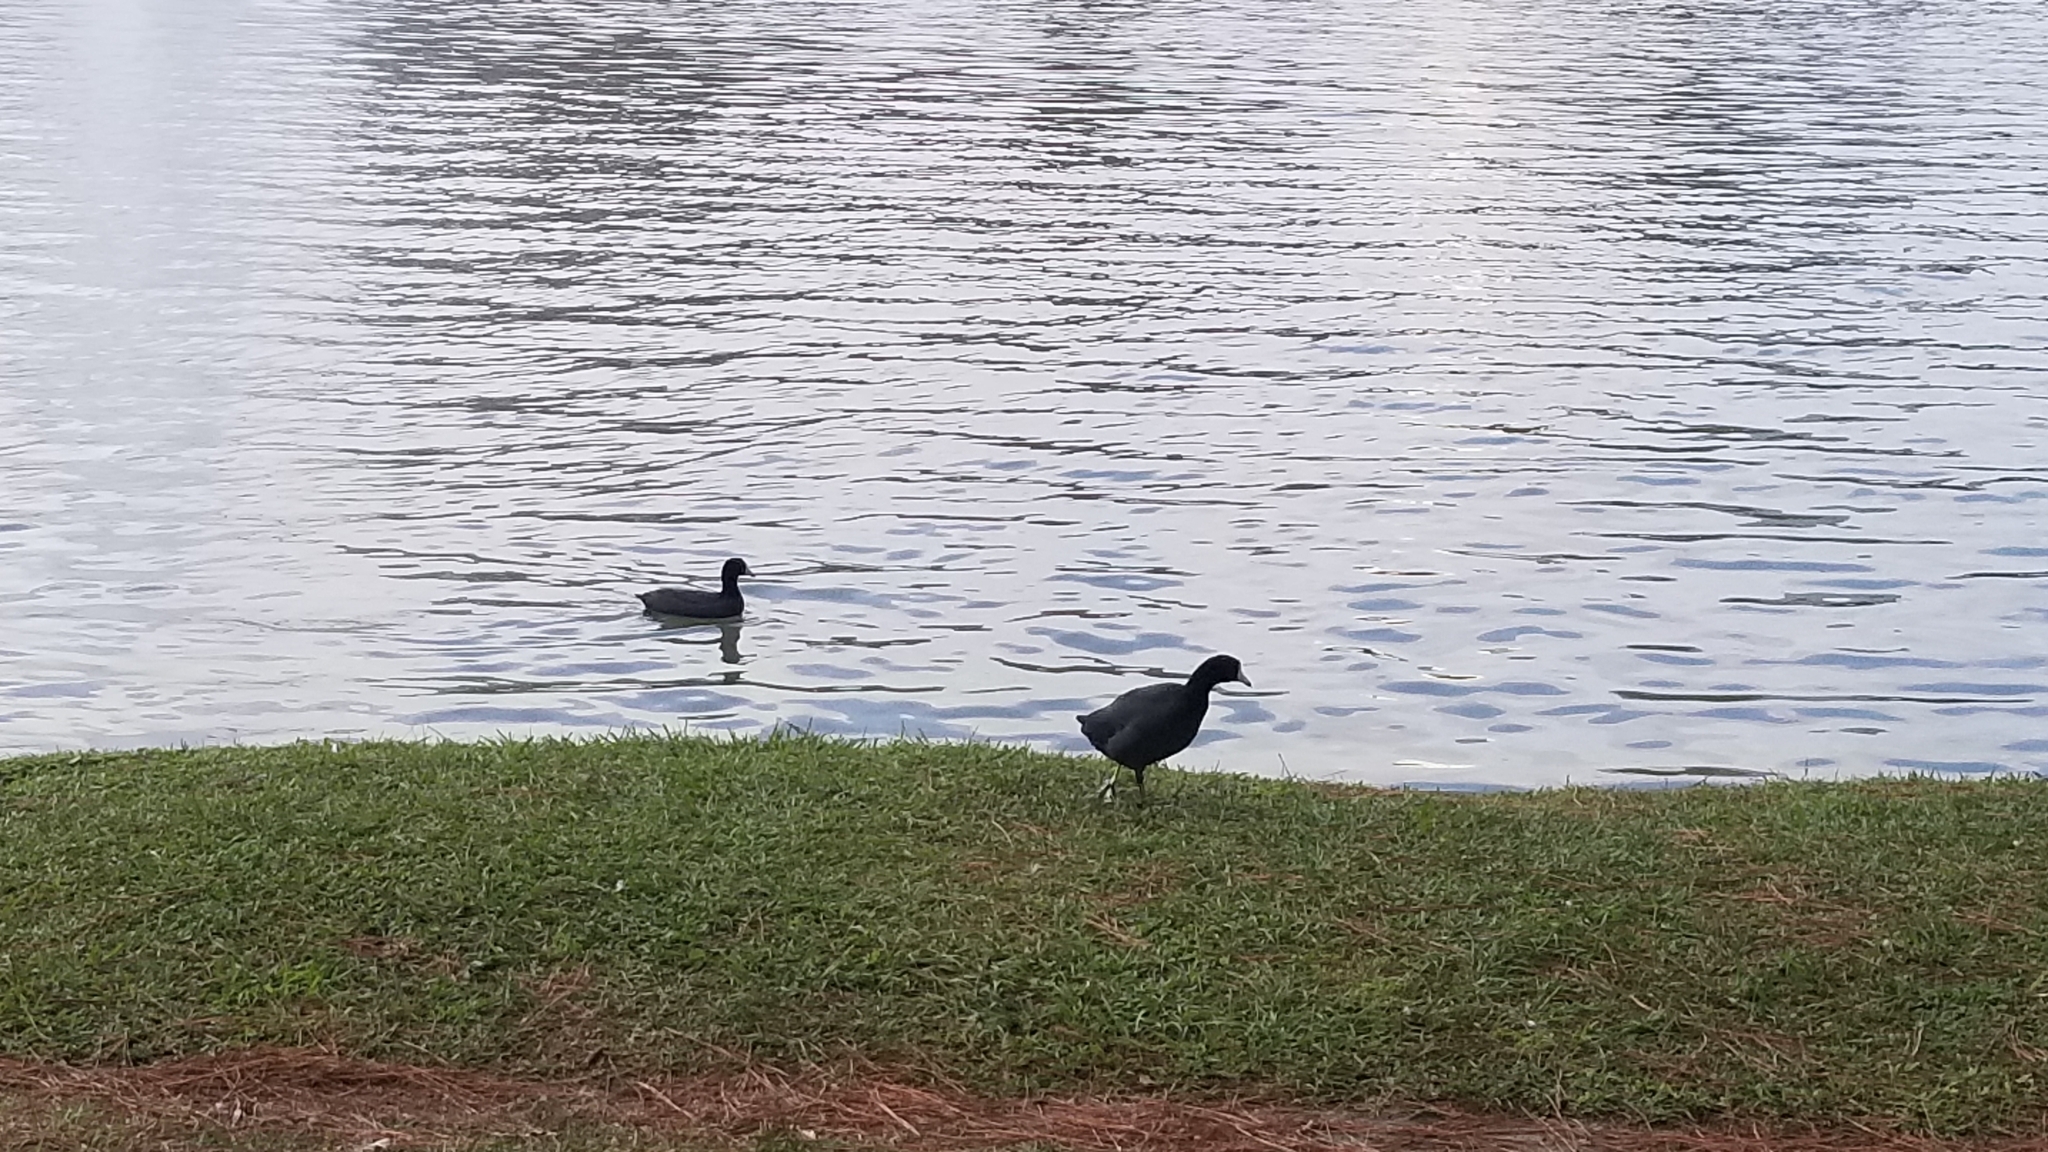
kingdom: Animalia
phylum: Chordata
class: Aves
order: Gruiformes
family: Rallidae
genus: Fulica
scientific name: Fulica americana
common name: American coot
